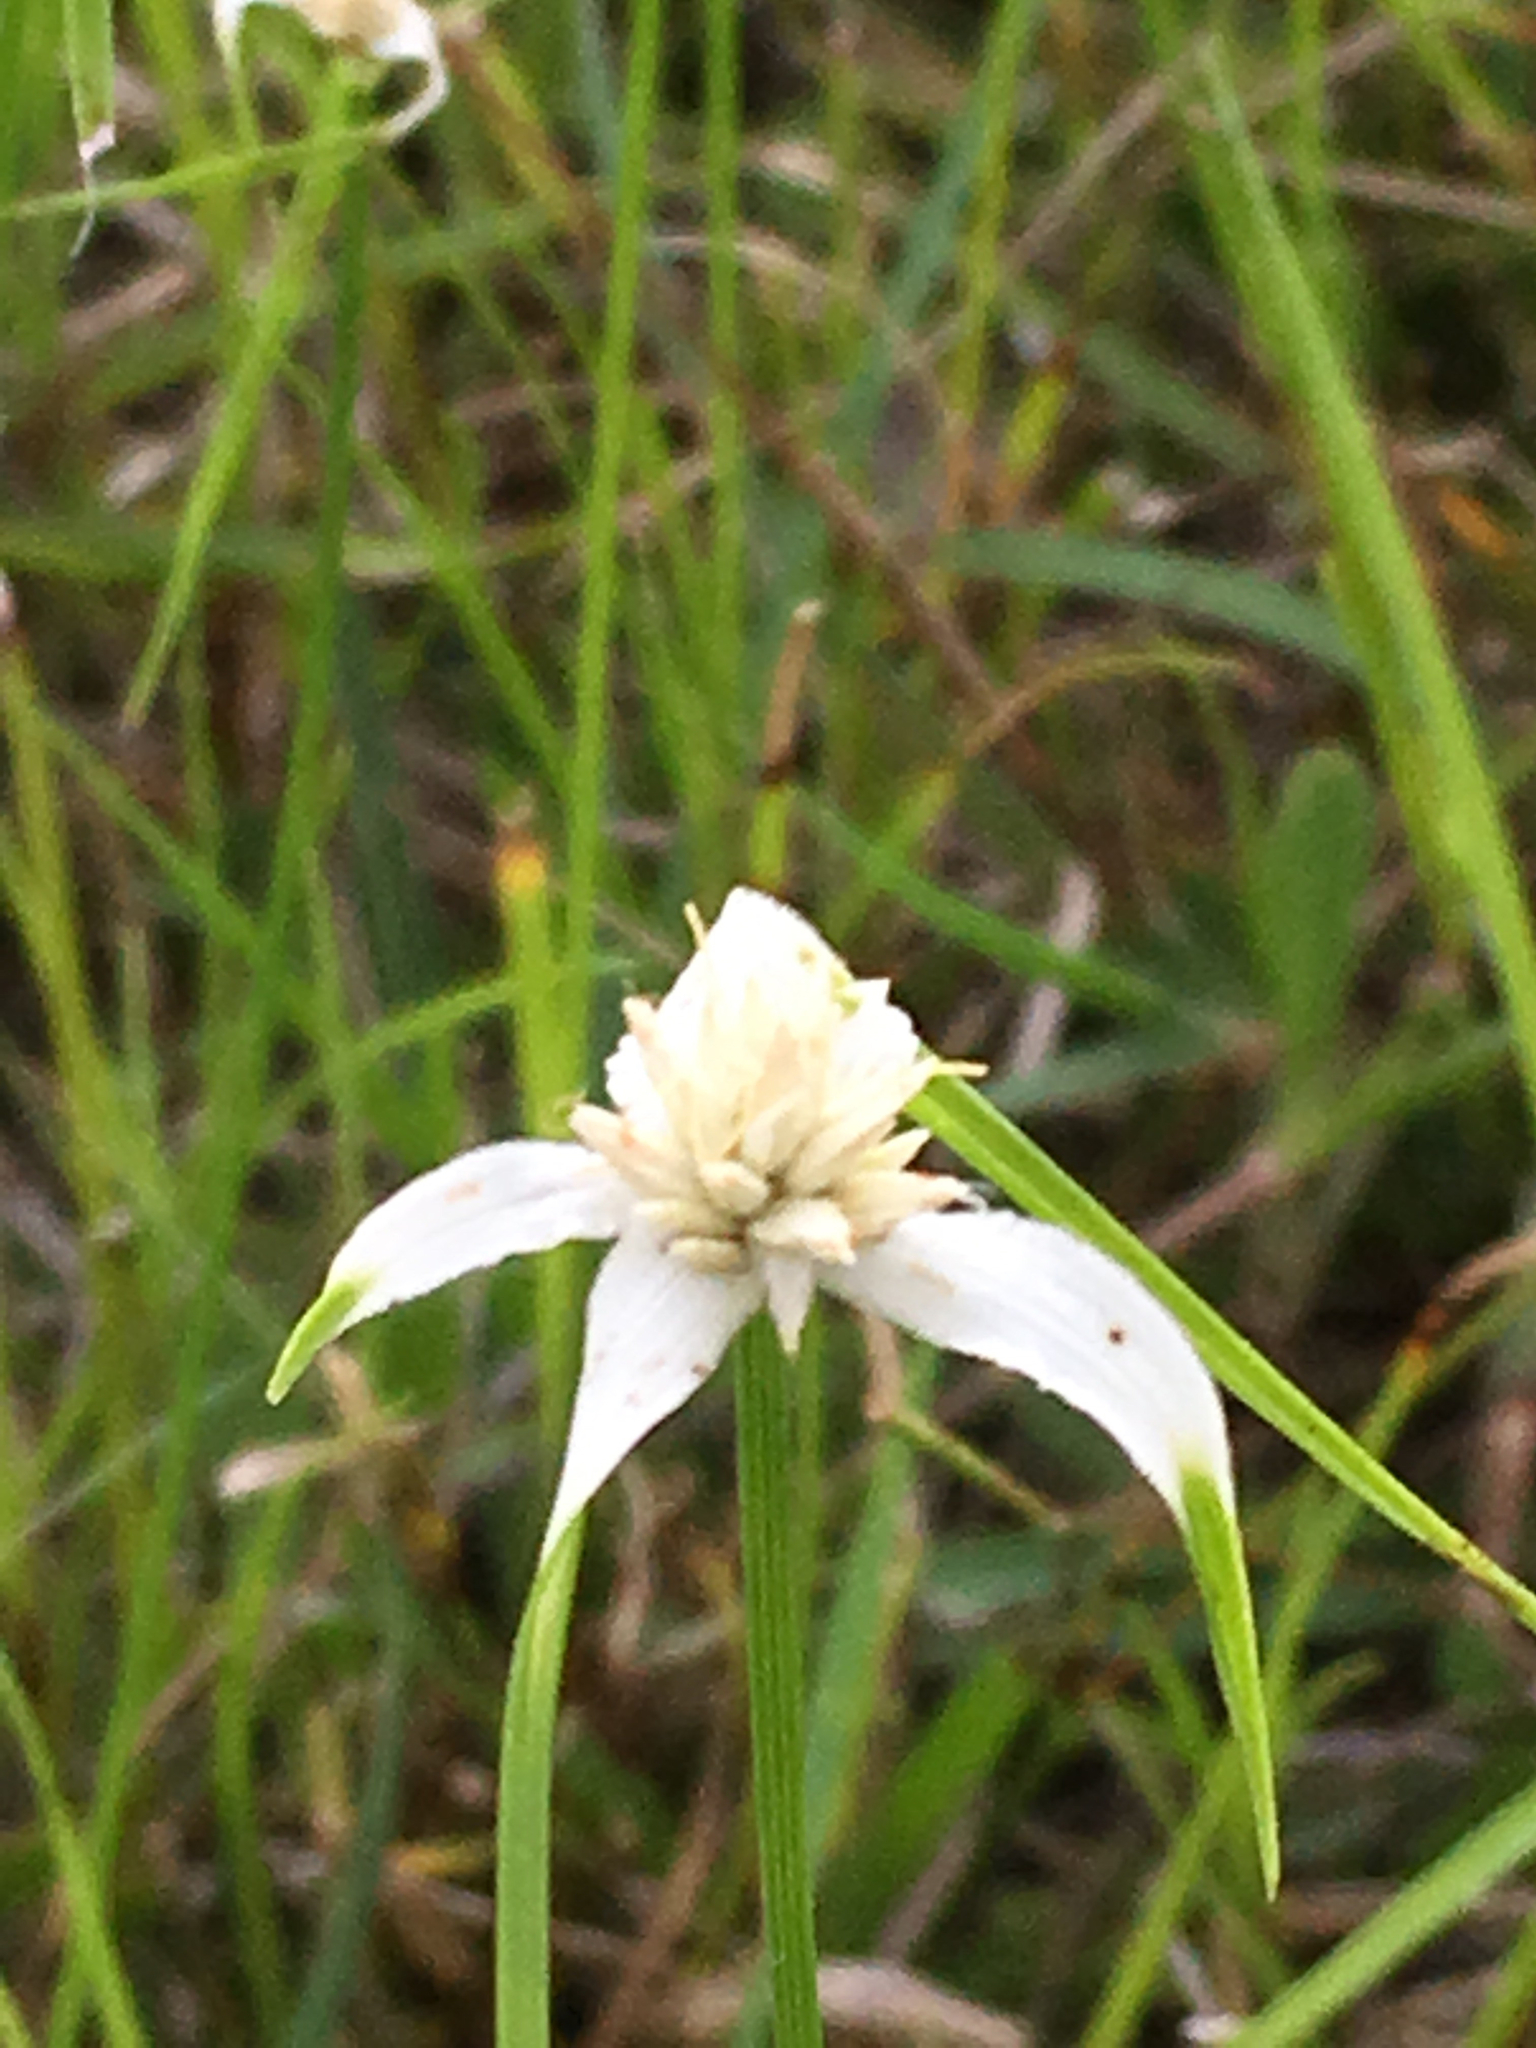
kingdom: Plantae
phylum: Tracheophyta
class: Liliopsida
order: Poales
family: Cyperaceae
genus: Rhynchospora
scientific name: Rhynchospora colorata
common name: Star sedge
